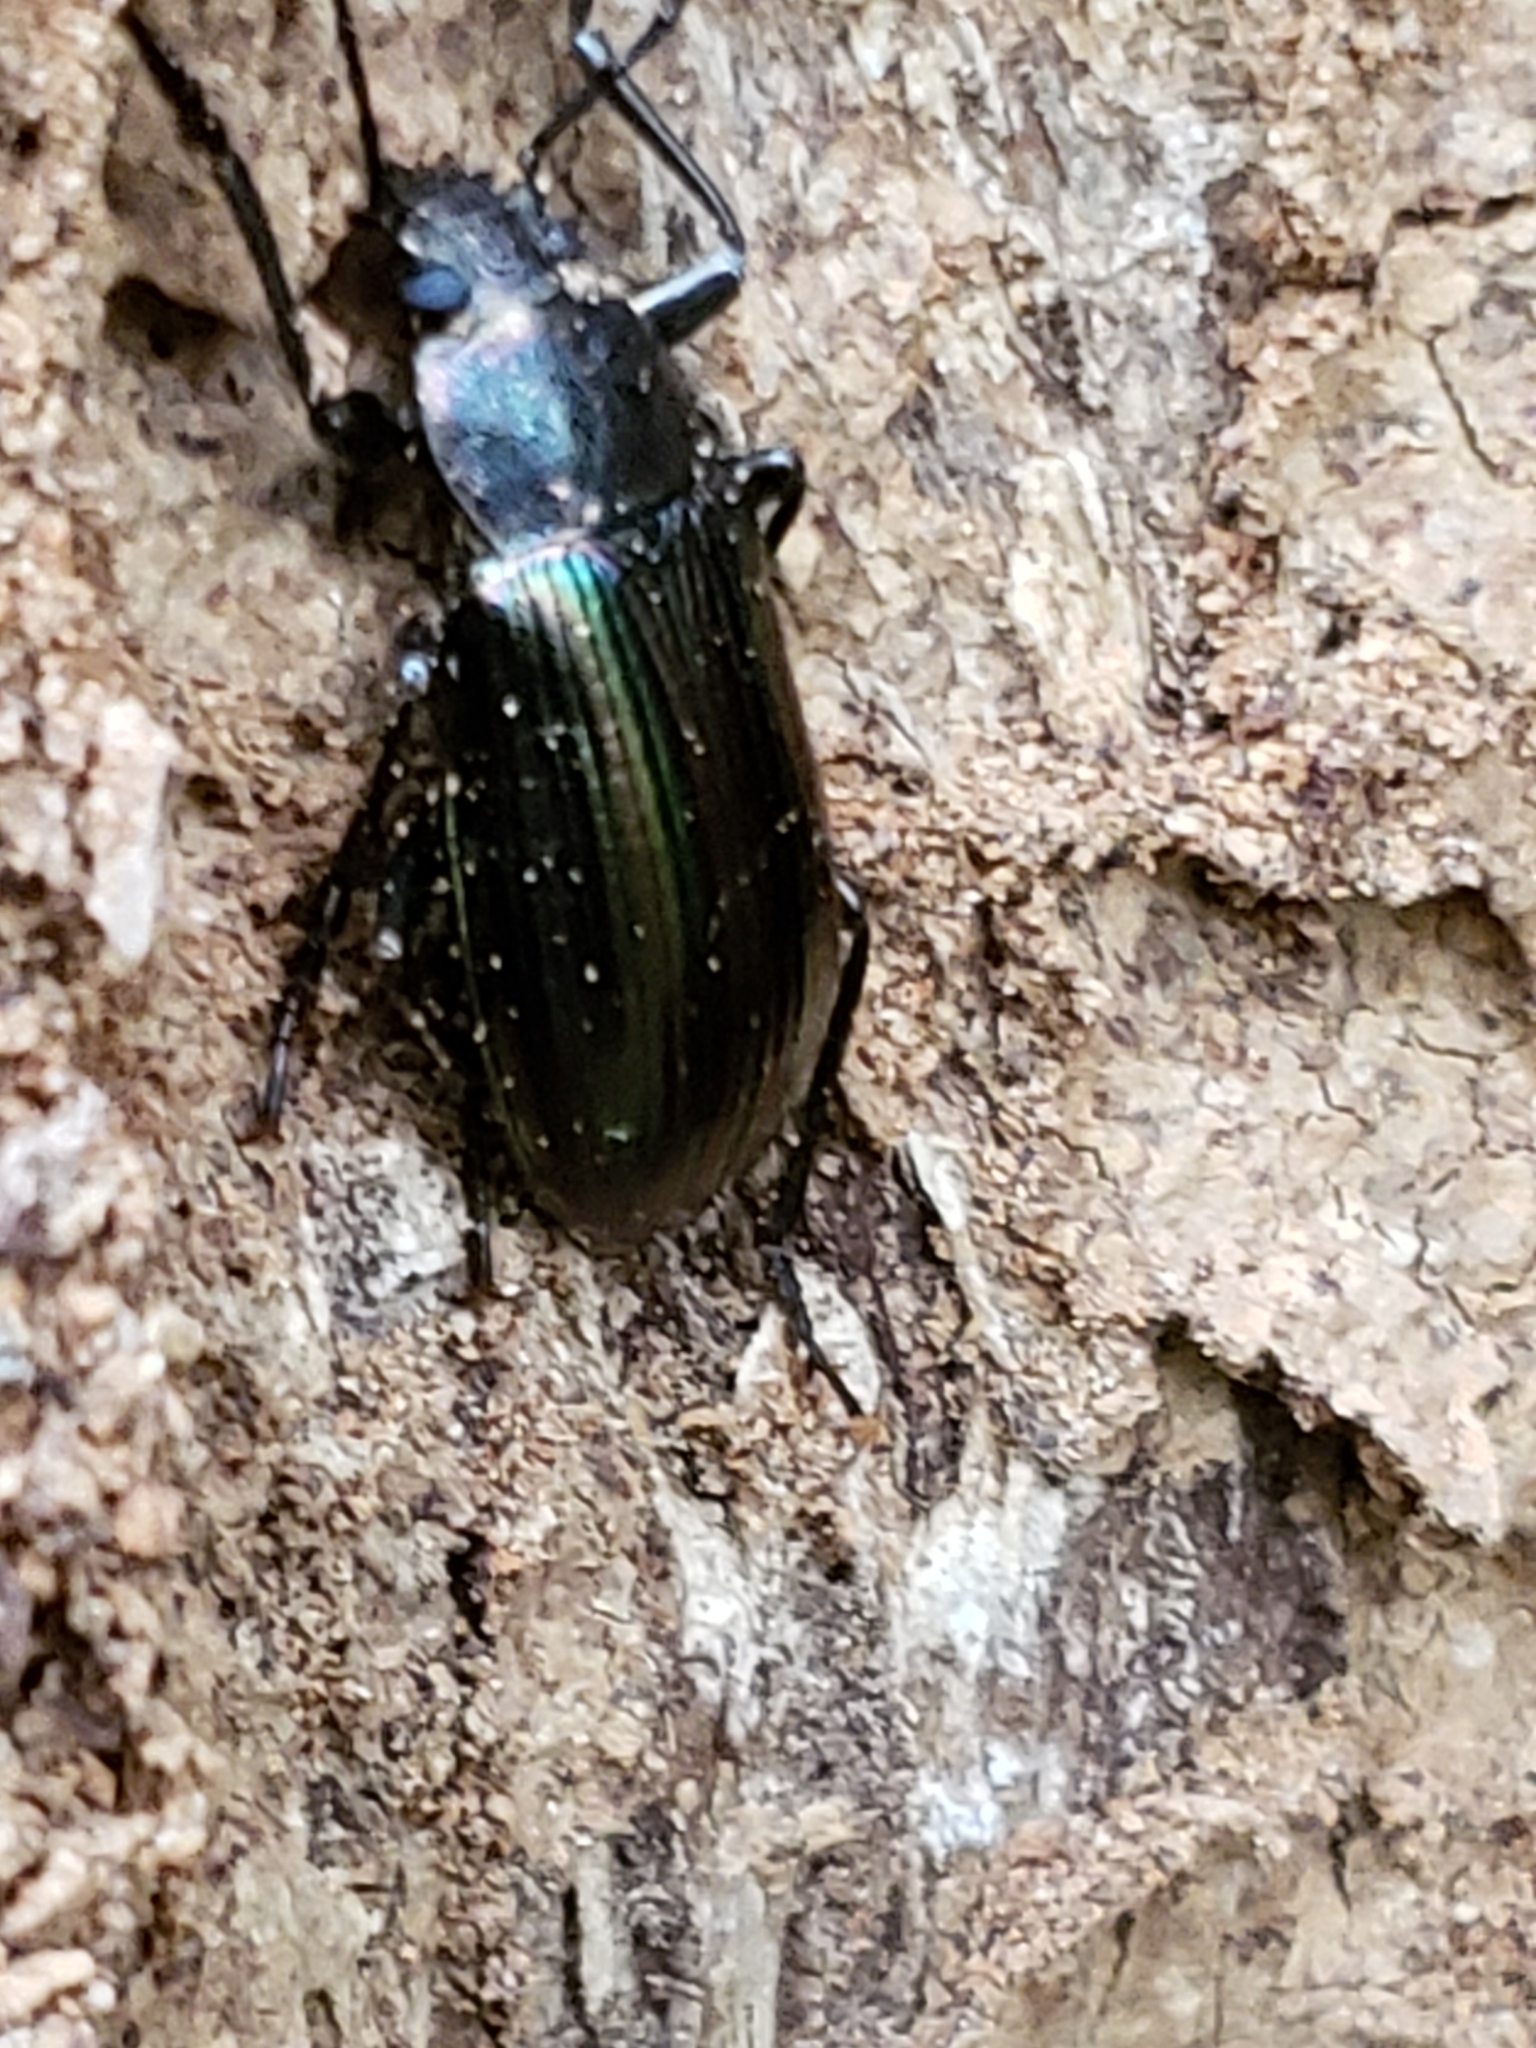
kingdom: Animalia
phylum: Arthropoda
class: Insecta
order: Coleoptera
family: Tenebrionidae
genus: Tarpela
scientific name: Tarpela micans
